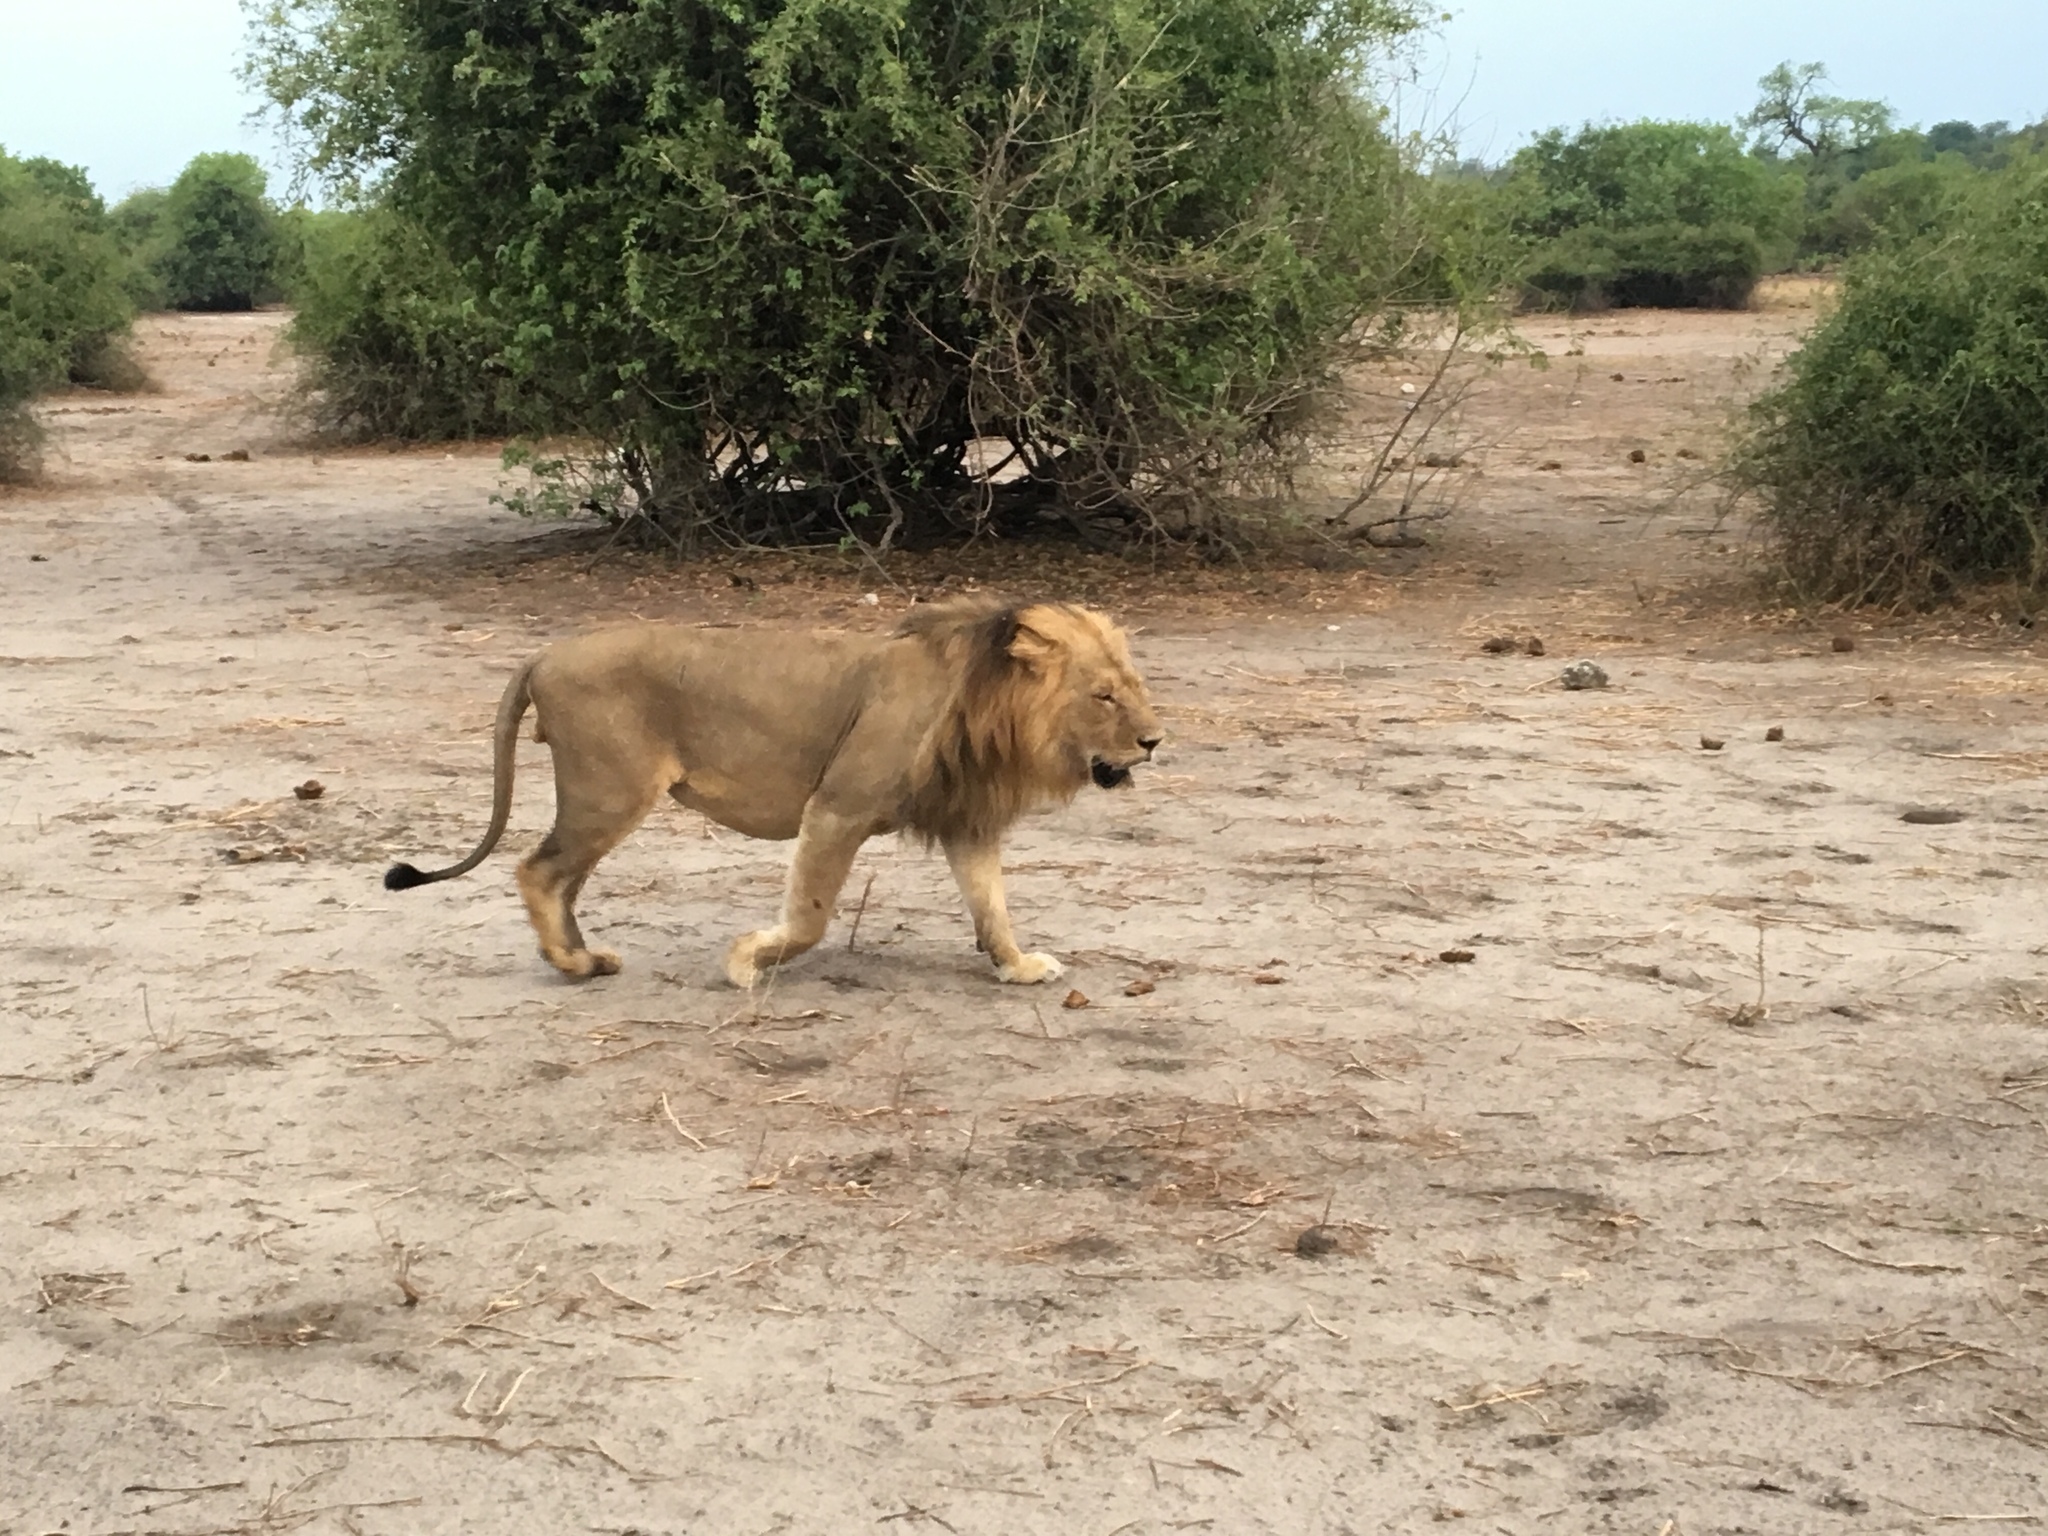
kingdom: Animalia
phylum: Chordata
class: Mammalia
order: Carnivora
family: Felidae
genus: Panthera
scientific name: Panthera leo
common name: Lion
